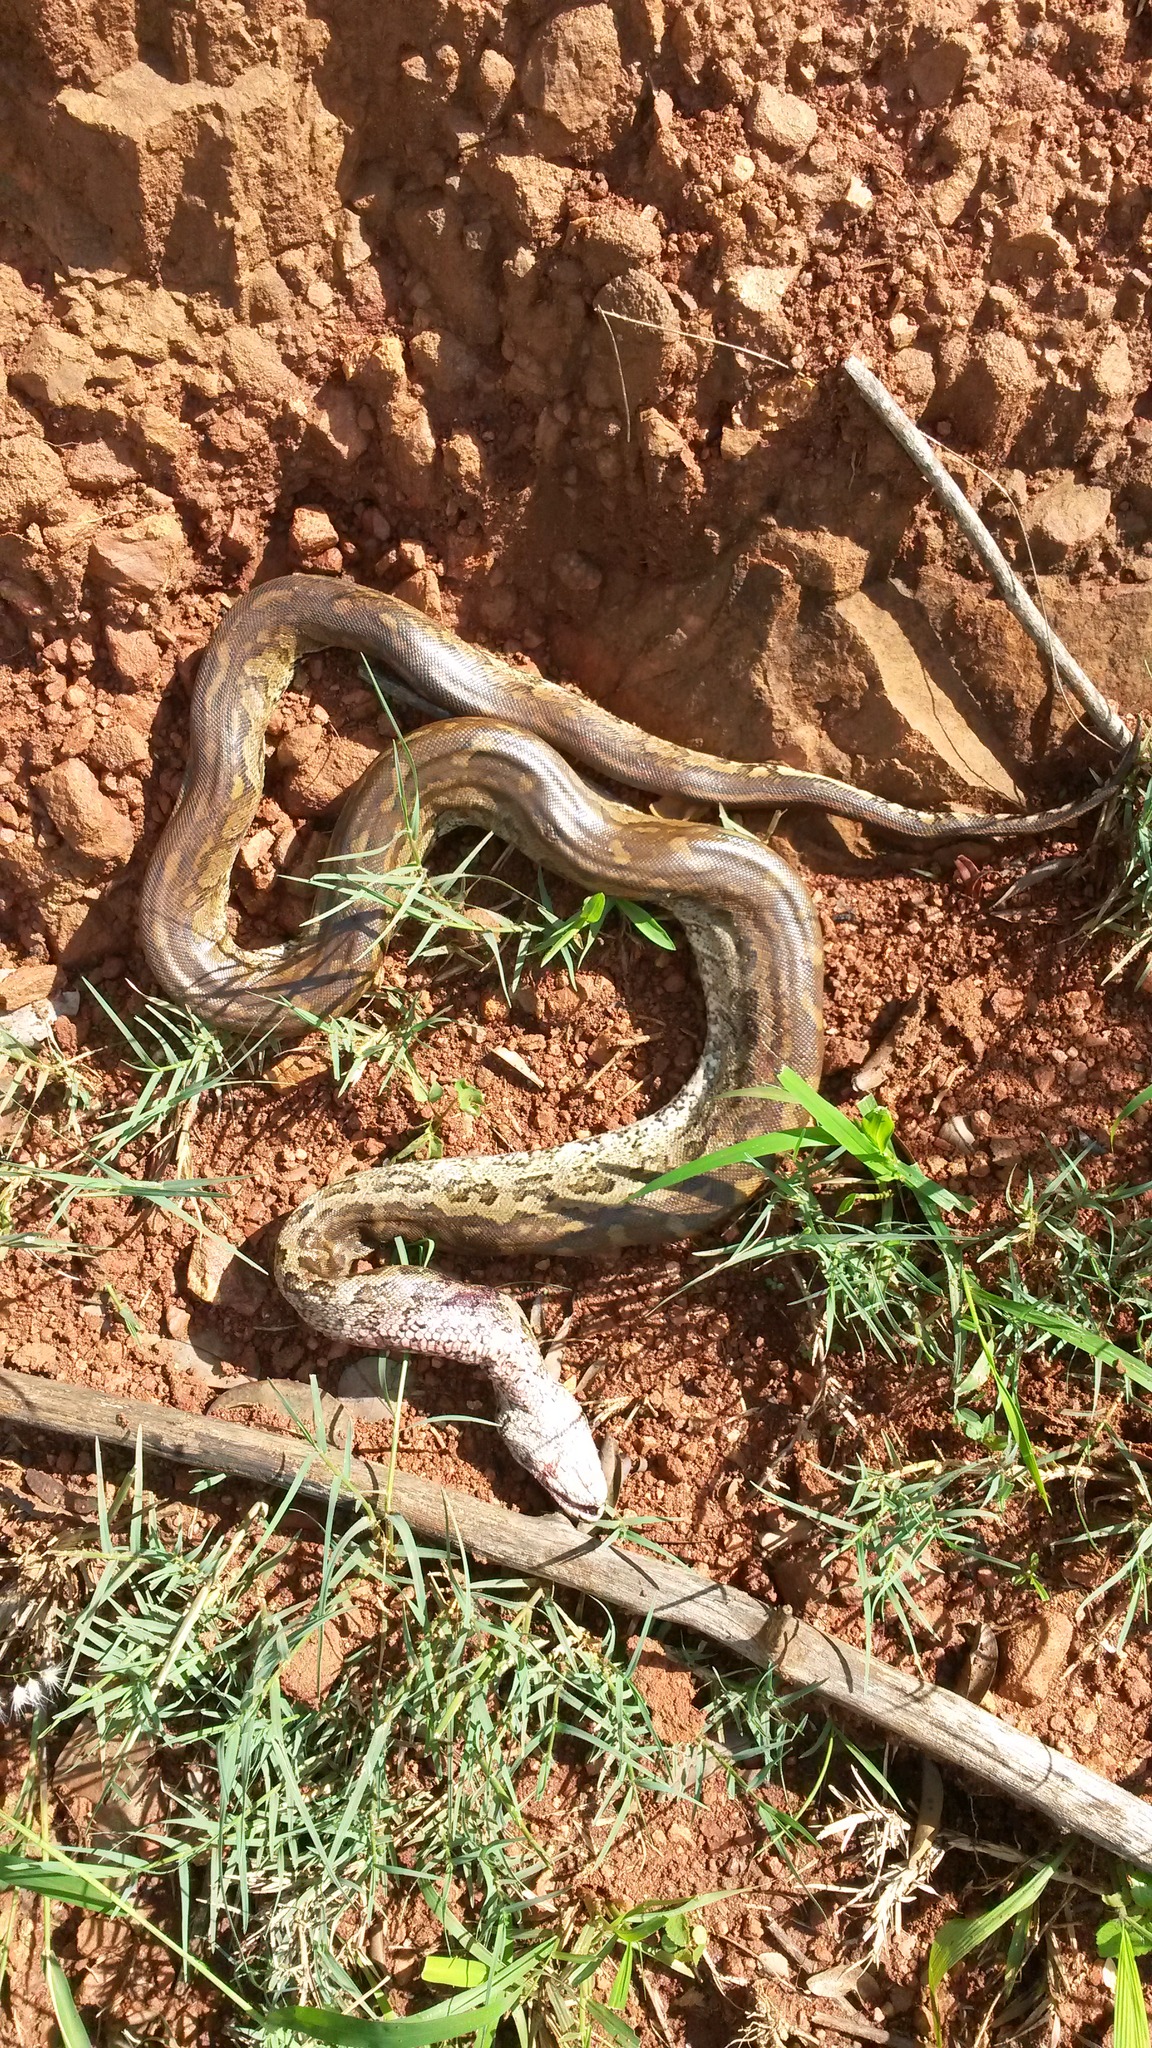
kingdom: Animalia
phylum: Chordata
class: Squamata
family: Pythonidae
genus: Python
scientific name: Python natalensis
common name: Southern african rock python
